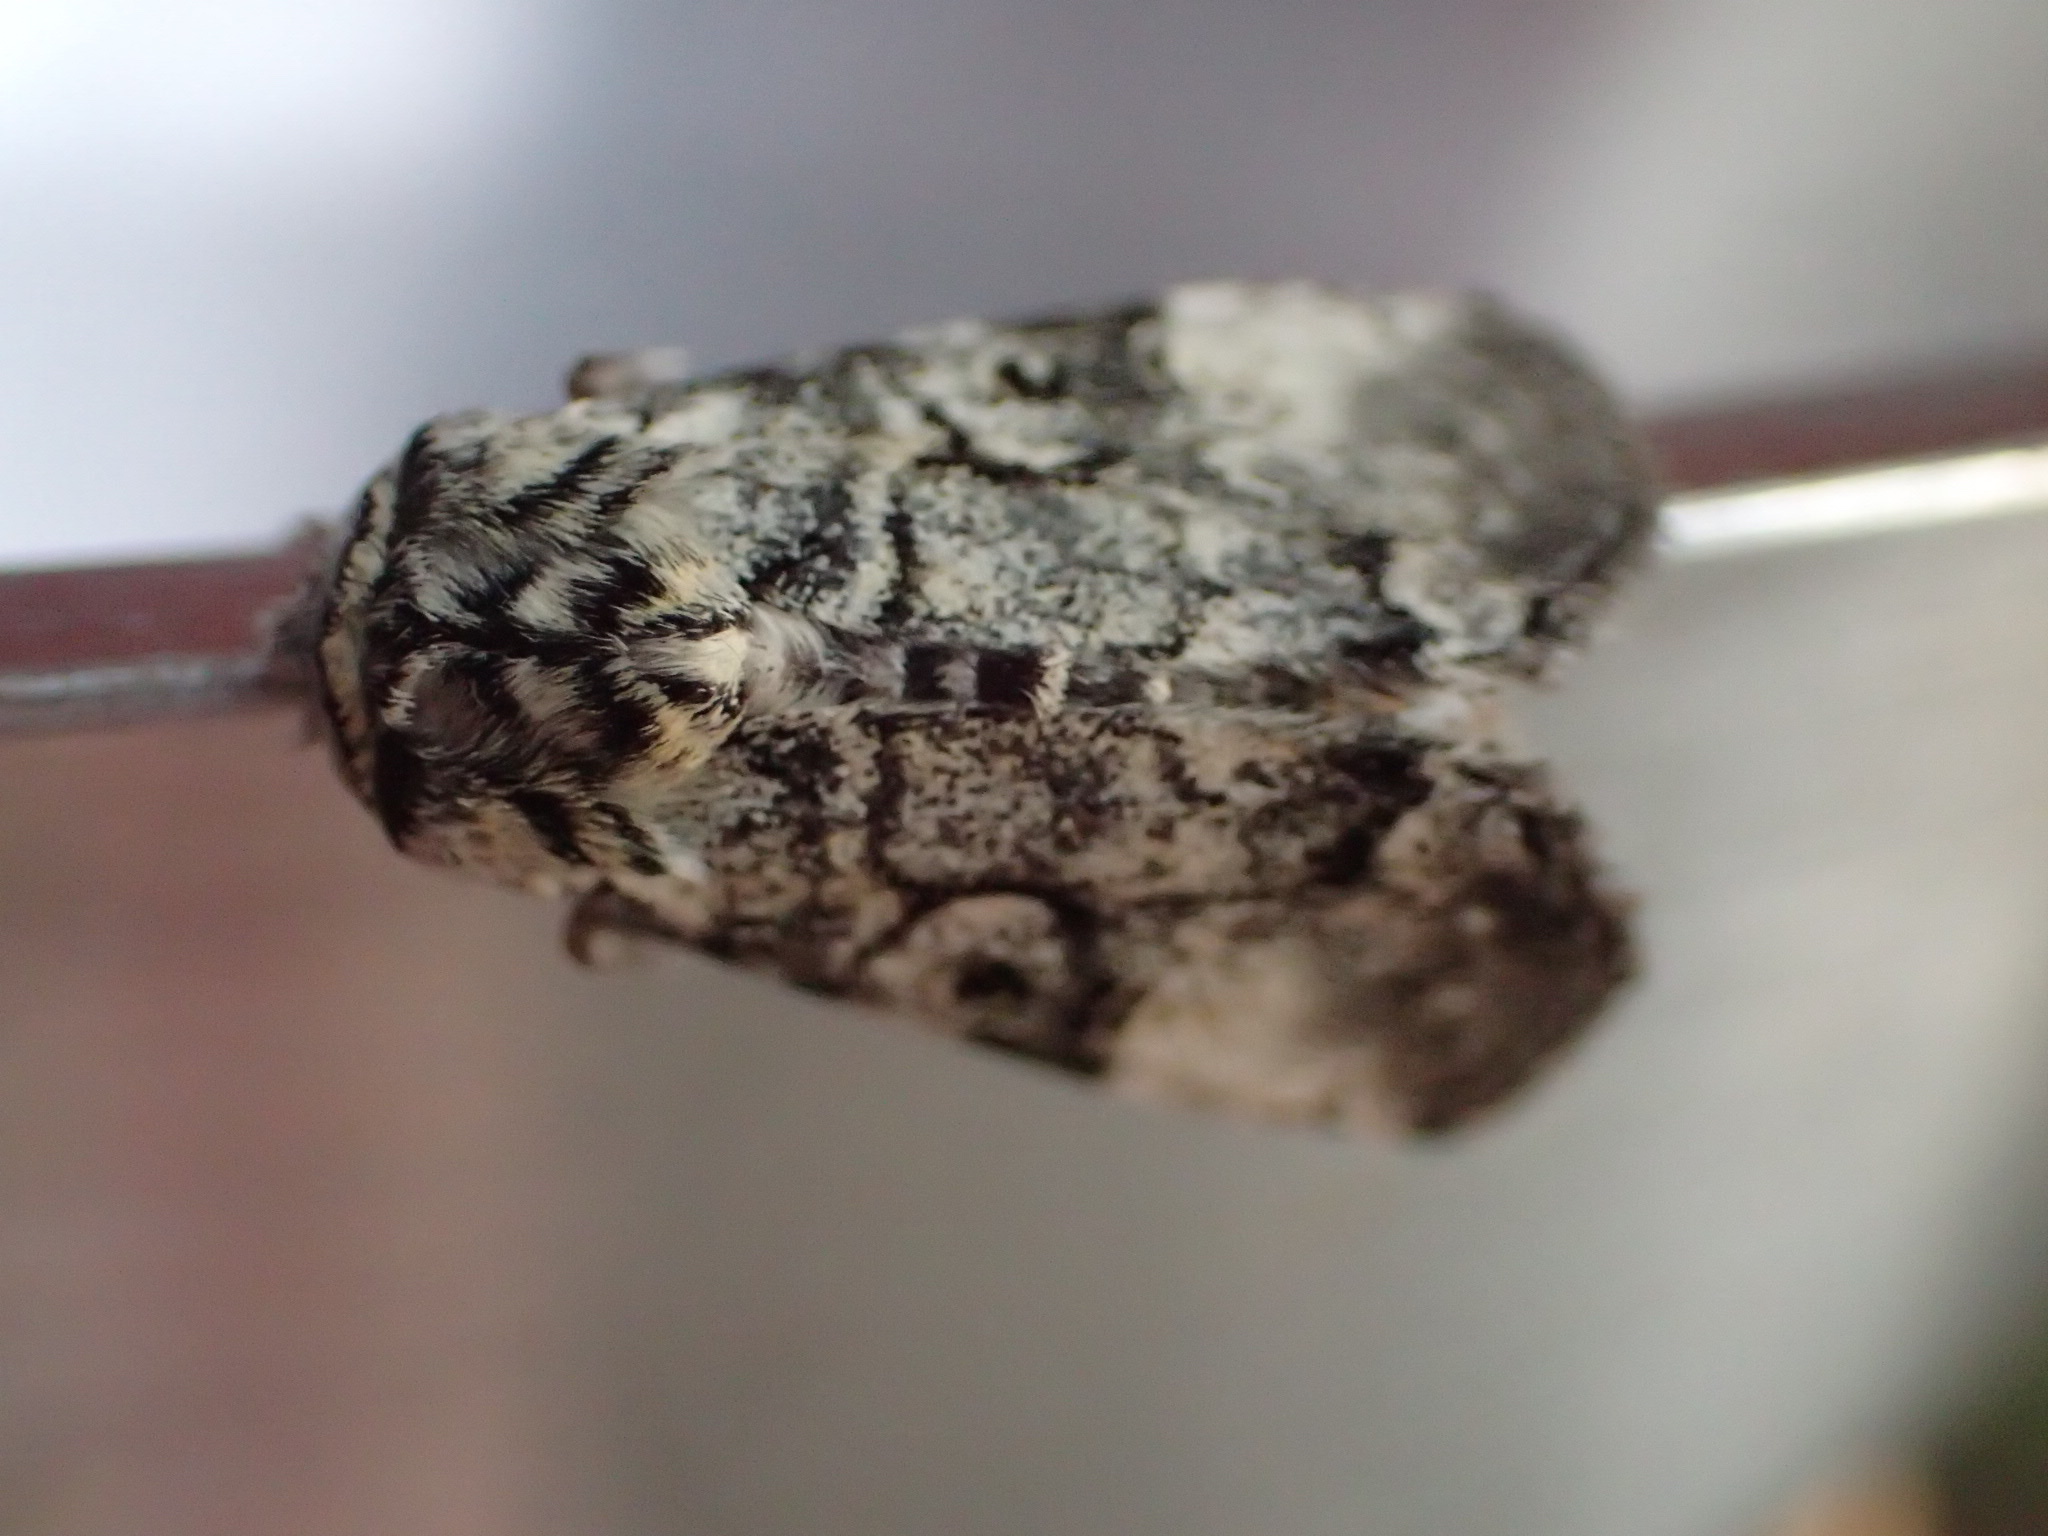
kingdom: Animalia
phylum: Arthropoda
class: Insecta
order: Lepidoptera
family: Noctuidae
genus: Charadra
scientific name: Charadra deridens
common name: Marbled tuffet
